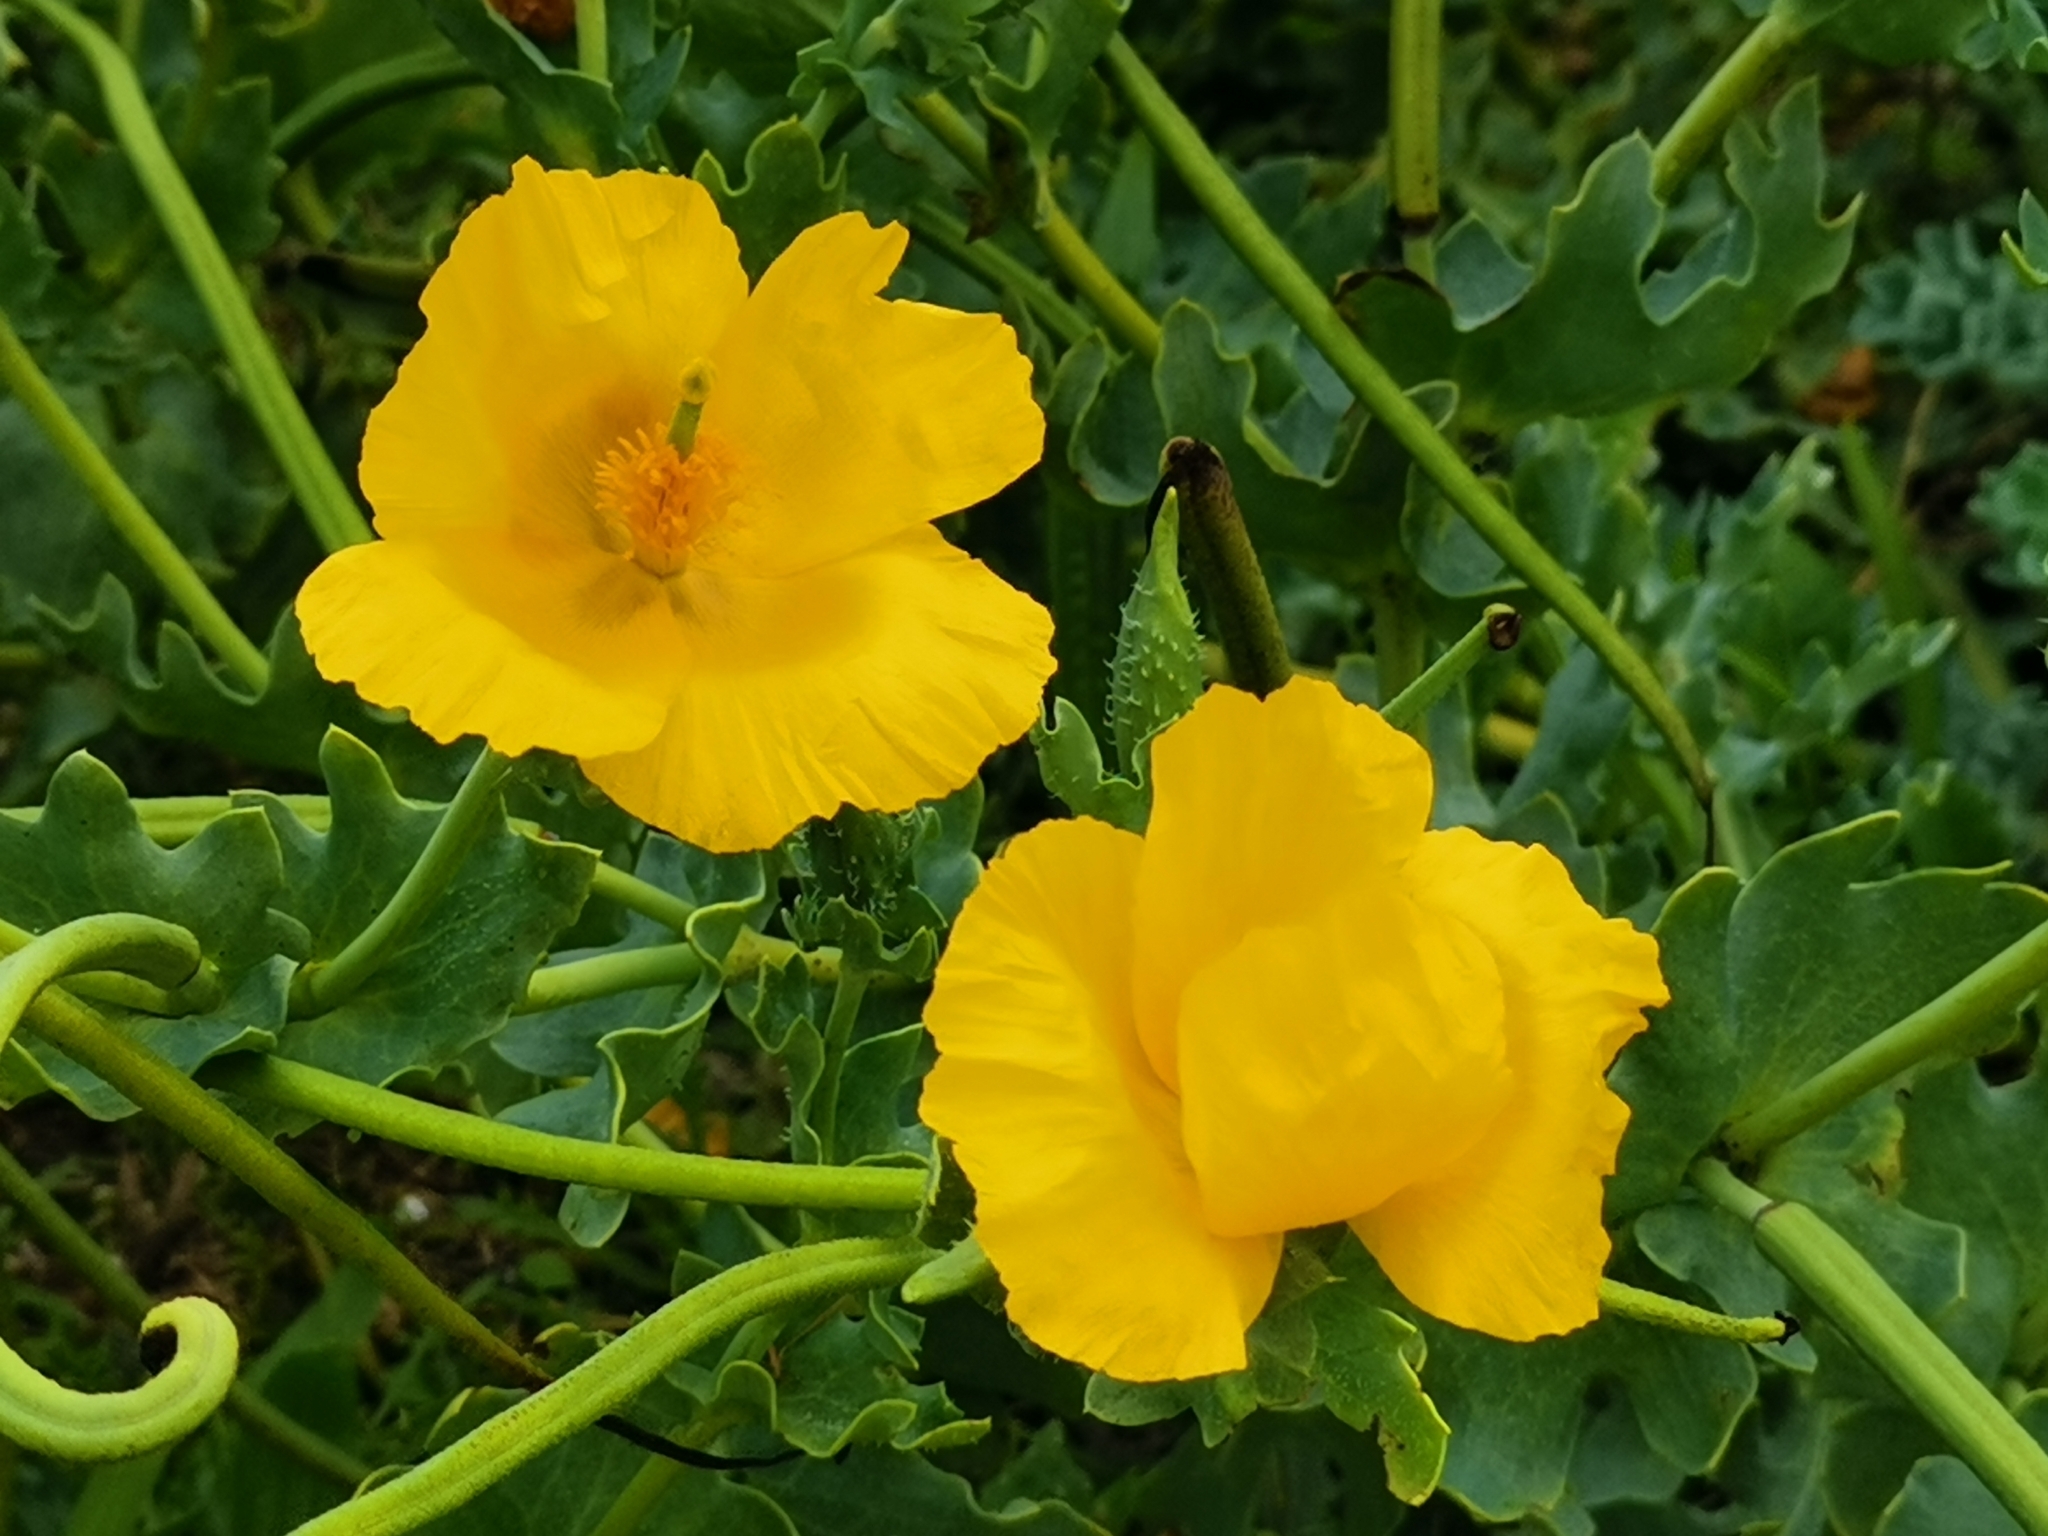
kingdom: Plantae
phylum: Tracheophyta
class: Magnoliopsida
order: Ranunculales
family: Papaveraceae
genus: Glaucium
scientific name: Glaucium flavum
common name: Yellow horned-poppy
